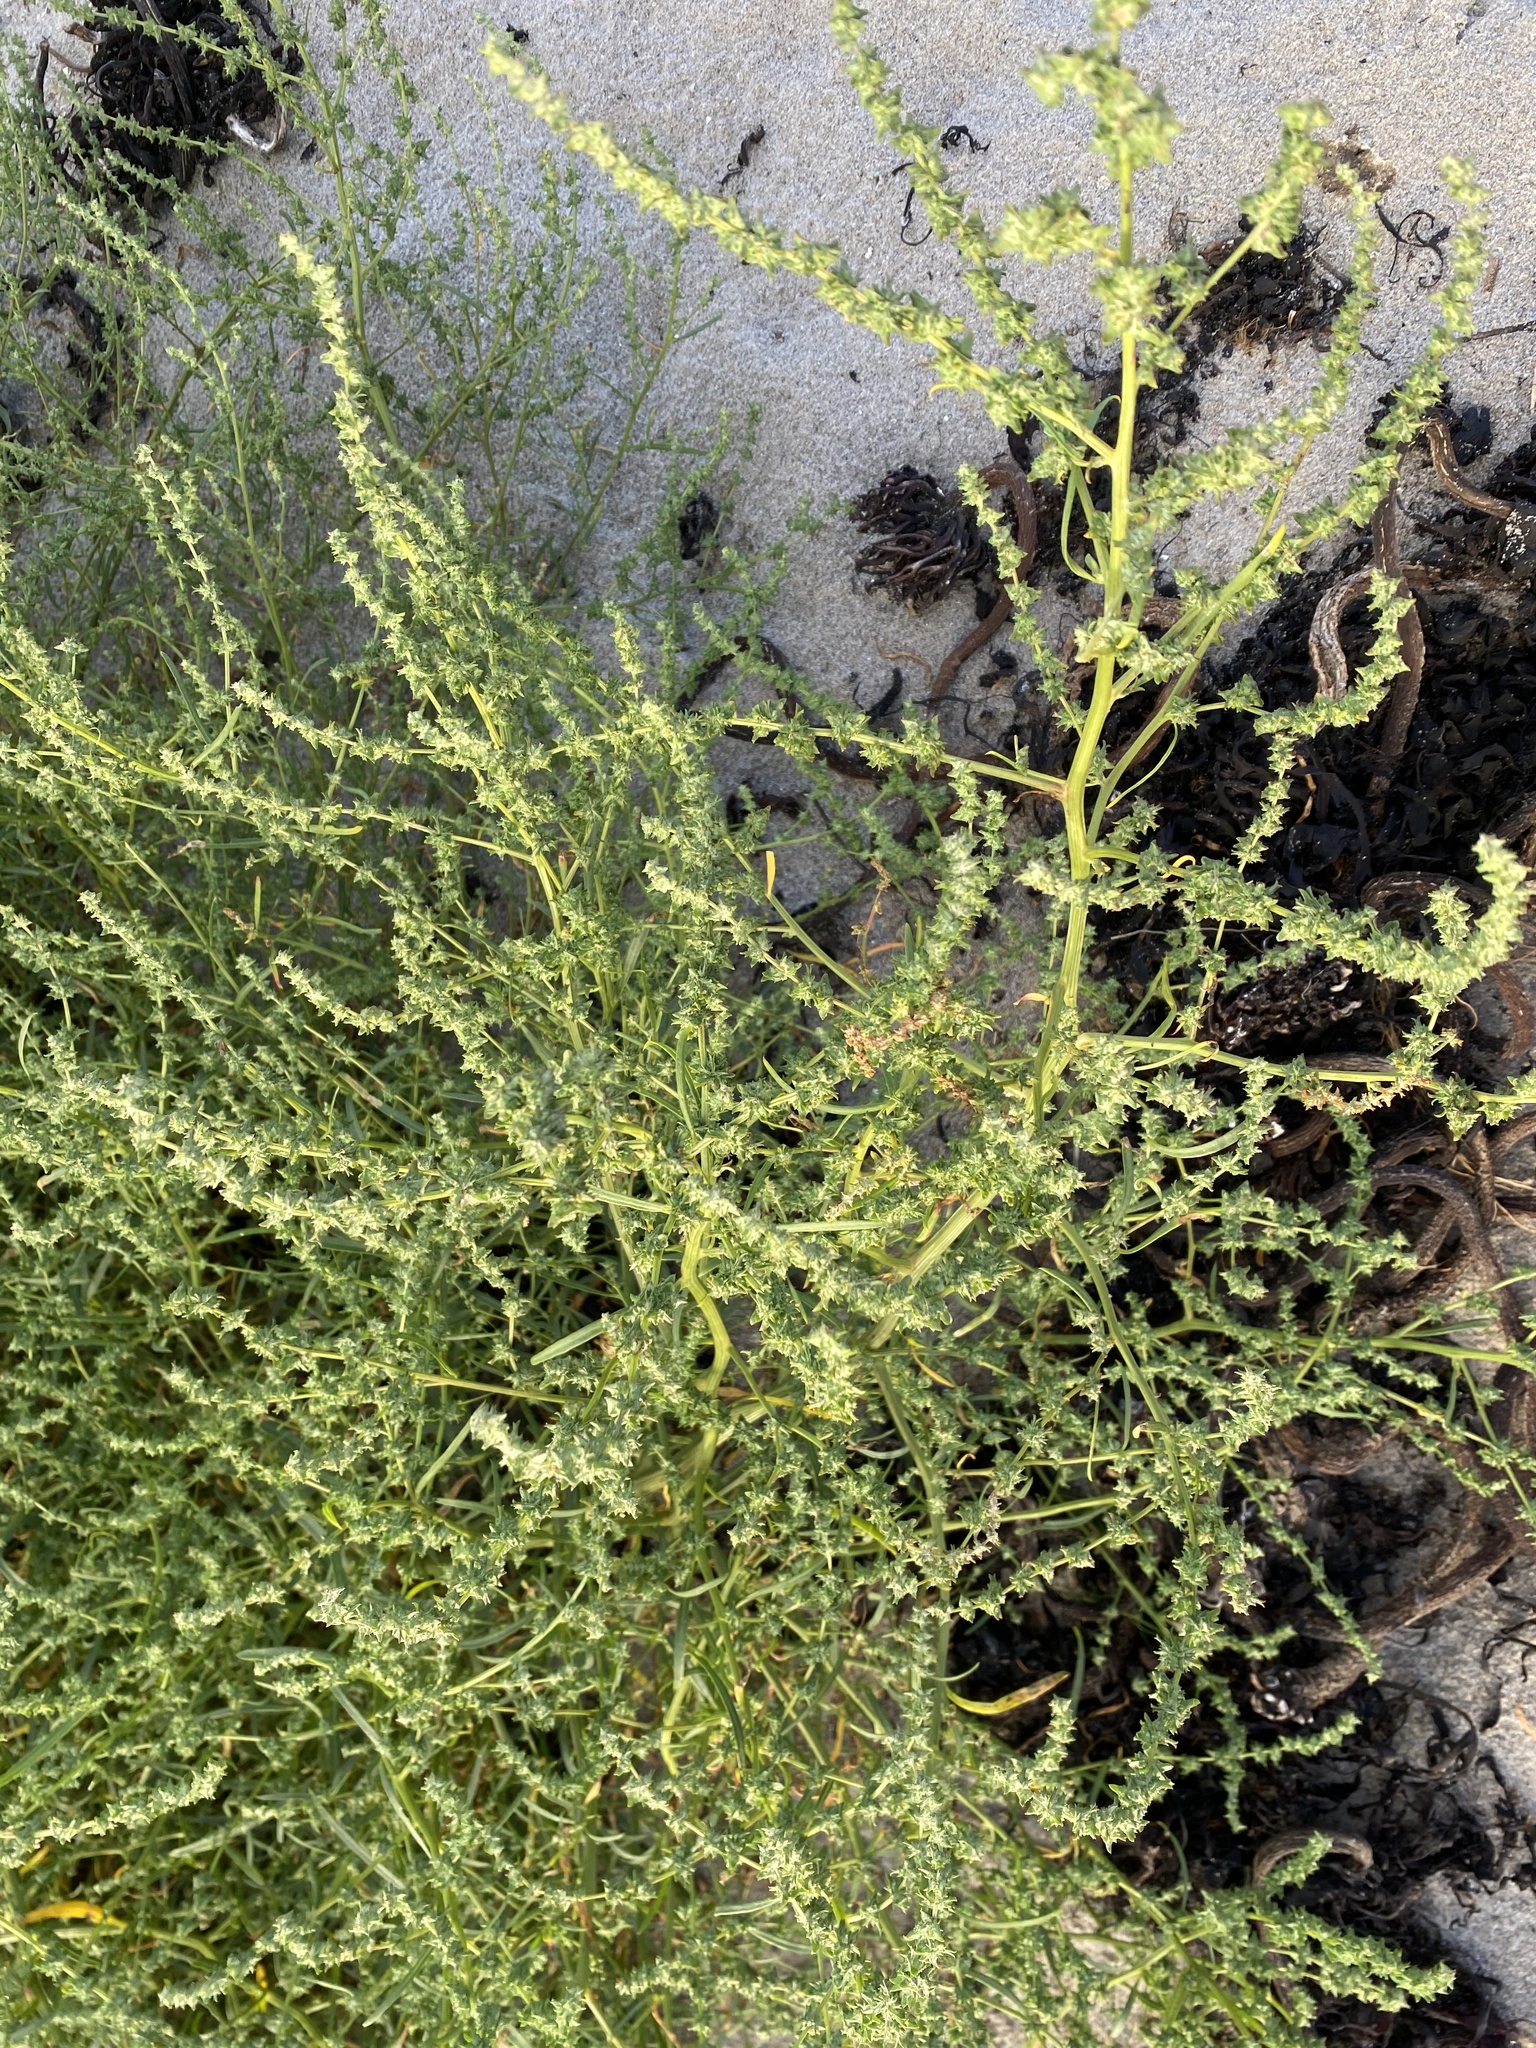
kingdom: Plantae
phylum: Tracheophyta
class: Magnoliopsida
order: Caryophyllales
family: Amaranthaceae
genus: Atriplex
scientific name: Atriplex littoralis
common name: Grass-leaved orache
